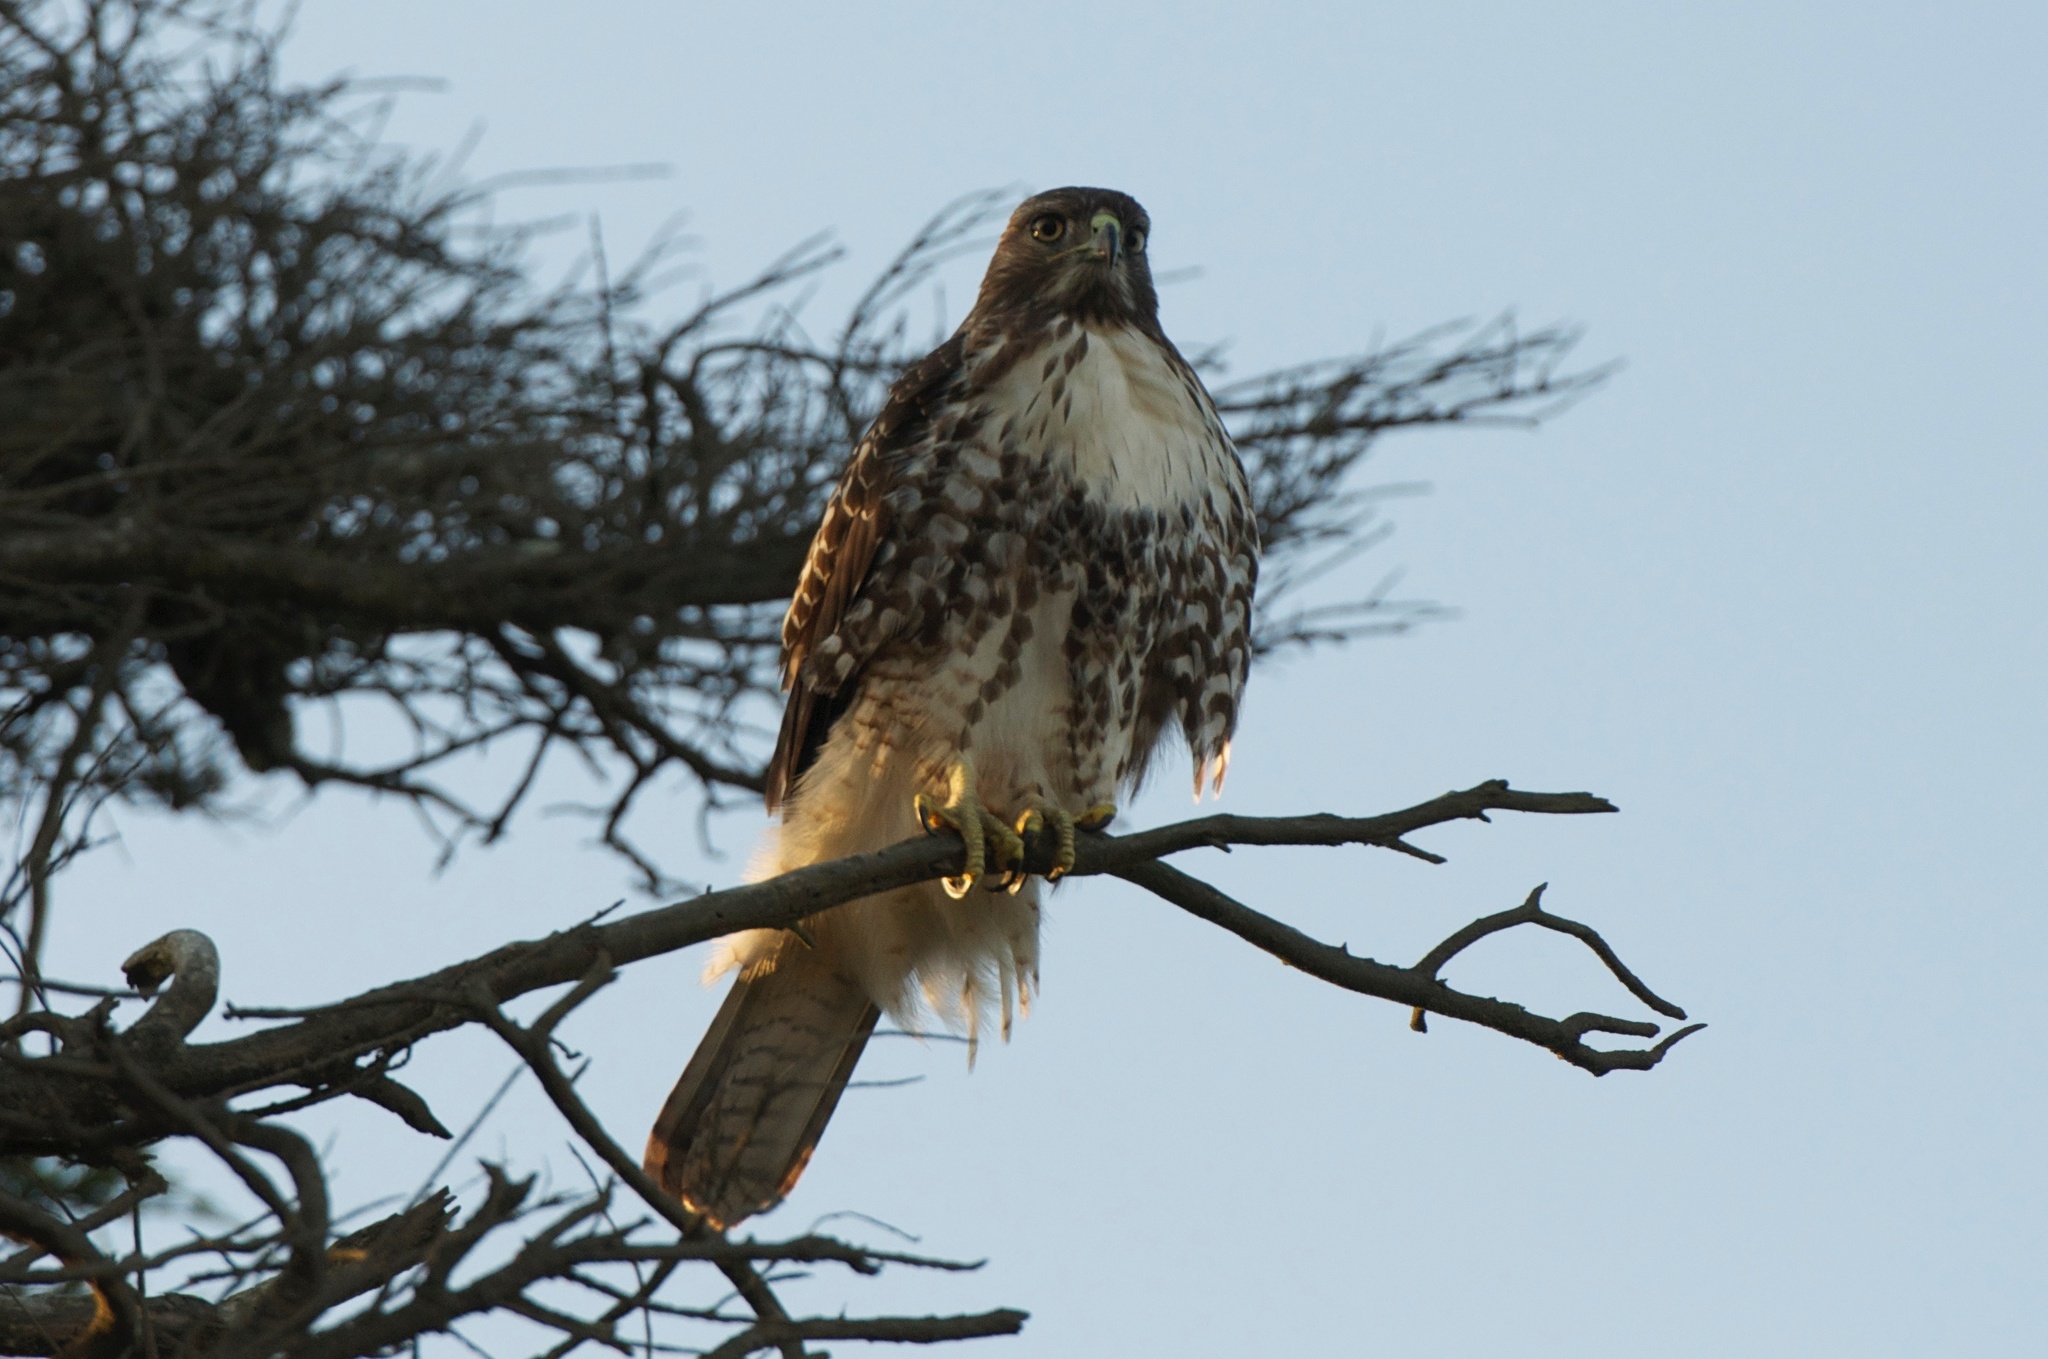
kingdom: Animalia
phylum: Chordata
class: Aves
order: Accipitriformes
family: Accipitridae
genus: Buteo
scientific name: Buteo jamaicensis
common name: Red-tailed hawk
